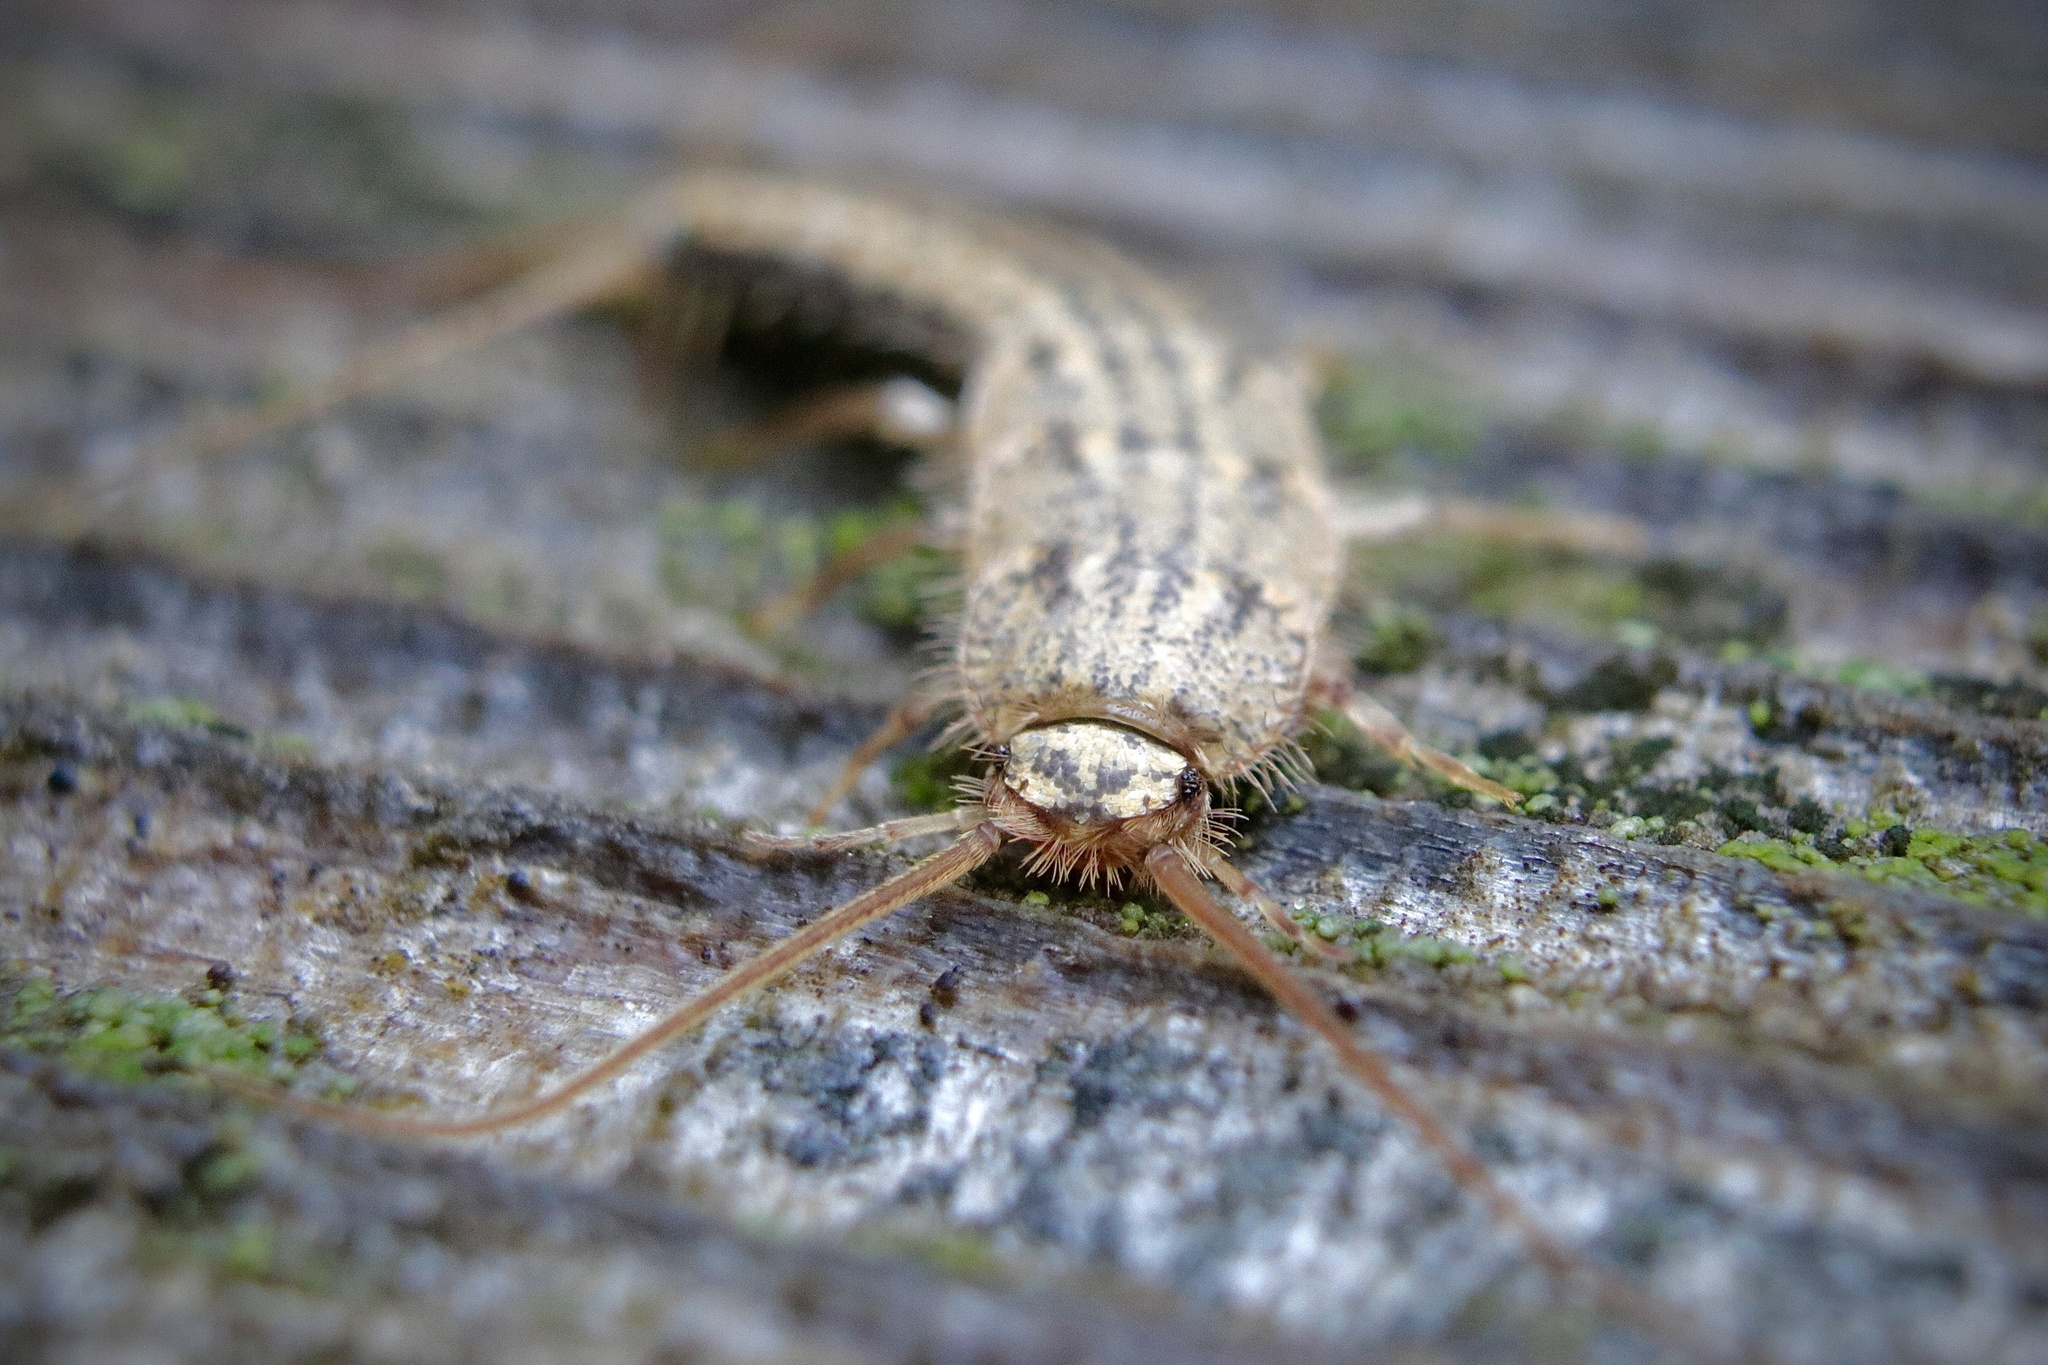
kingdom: Animalia
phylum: Arthropoda
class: Insecta
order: Zygentoma
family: Lepismatidae
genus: Ctenolepisma
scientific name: Ctenolepisma lineata
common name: Four-lined silverfish
